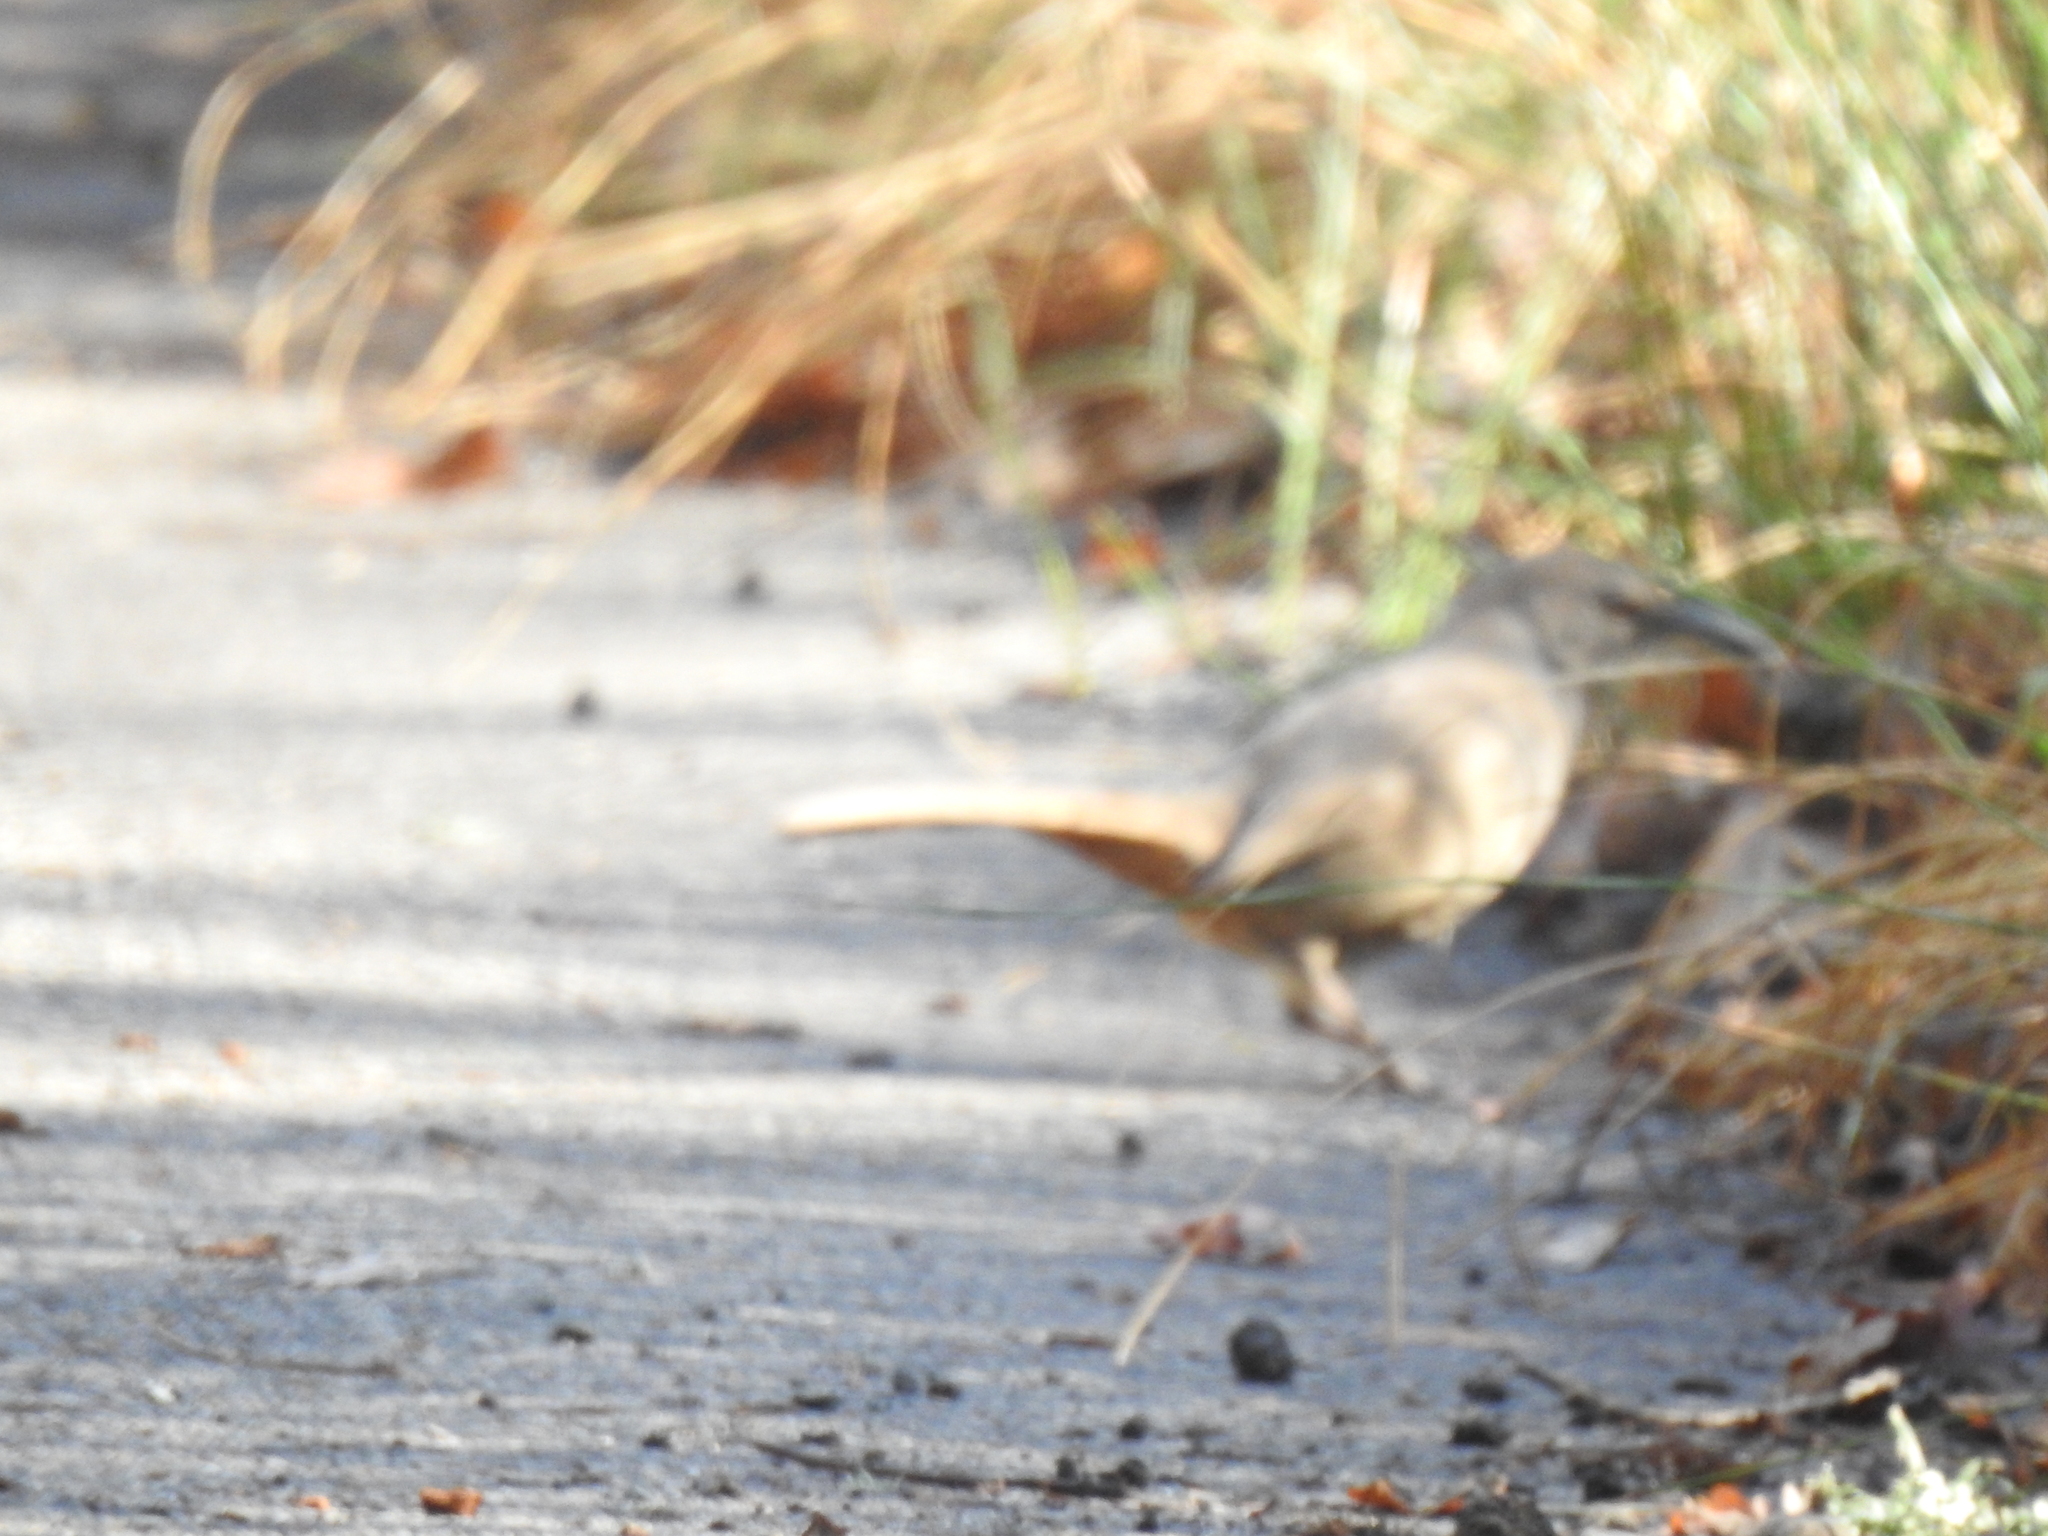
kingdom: Animalia
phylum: Chordata
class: Aves
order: Passeriformes
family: Mimidae
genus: Toxostoma
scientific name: Toxostoma redivivum
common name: California thrasher
